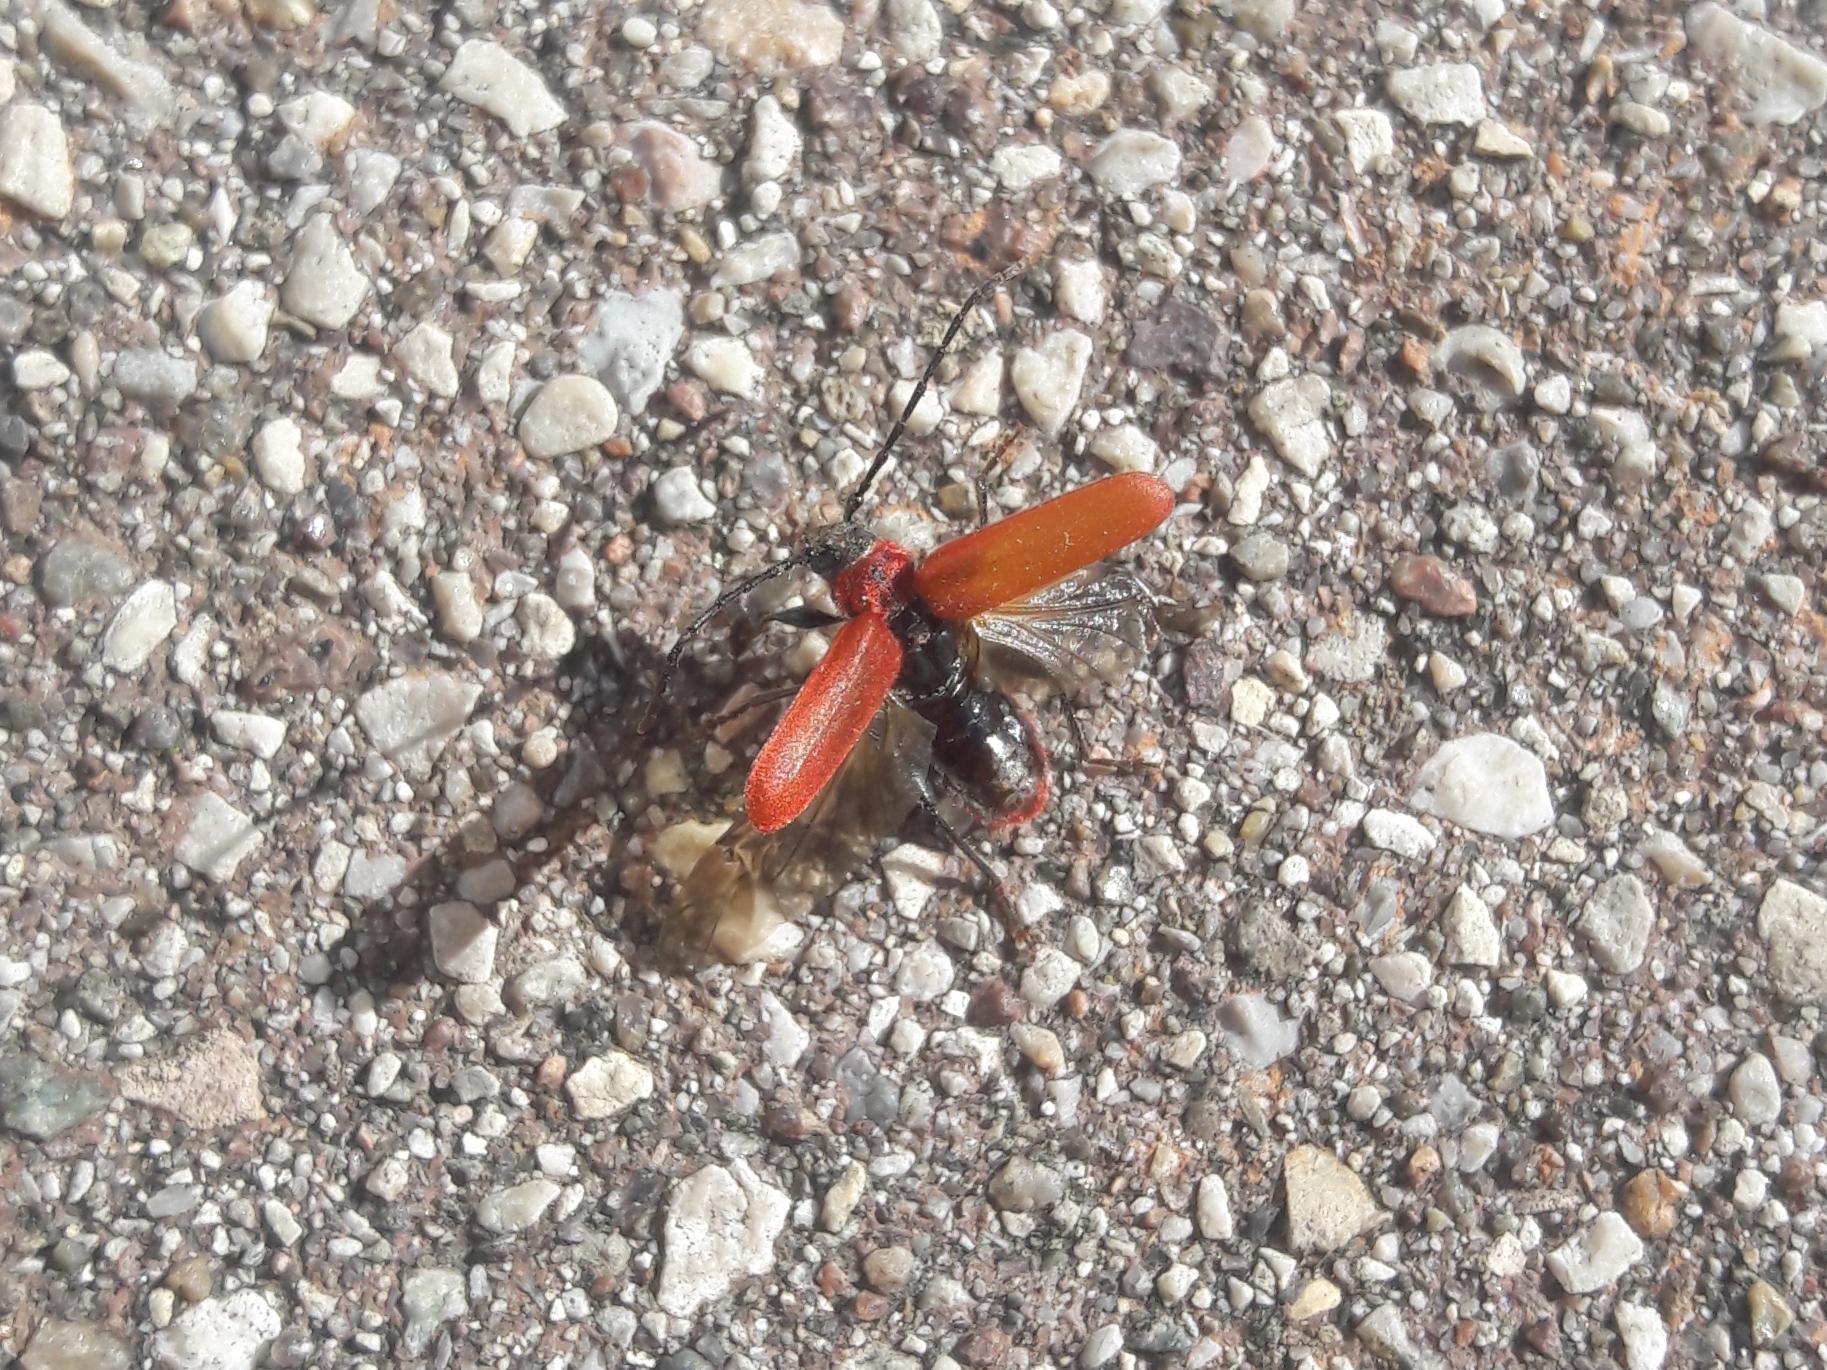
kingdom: Animalia
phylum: Arthropoda
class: Insecta
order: Coleoptera
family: Cerambycidae
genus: Pyrrhidium
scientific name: Pyrrhidium sanguineum
